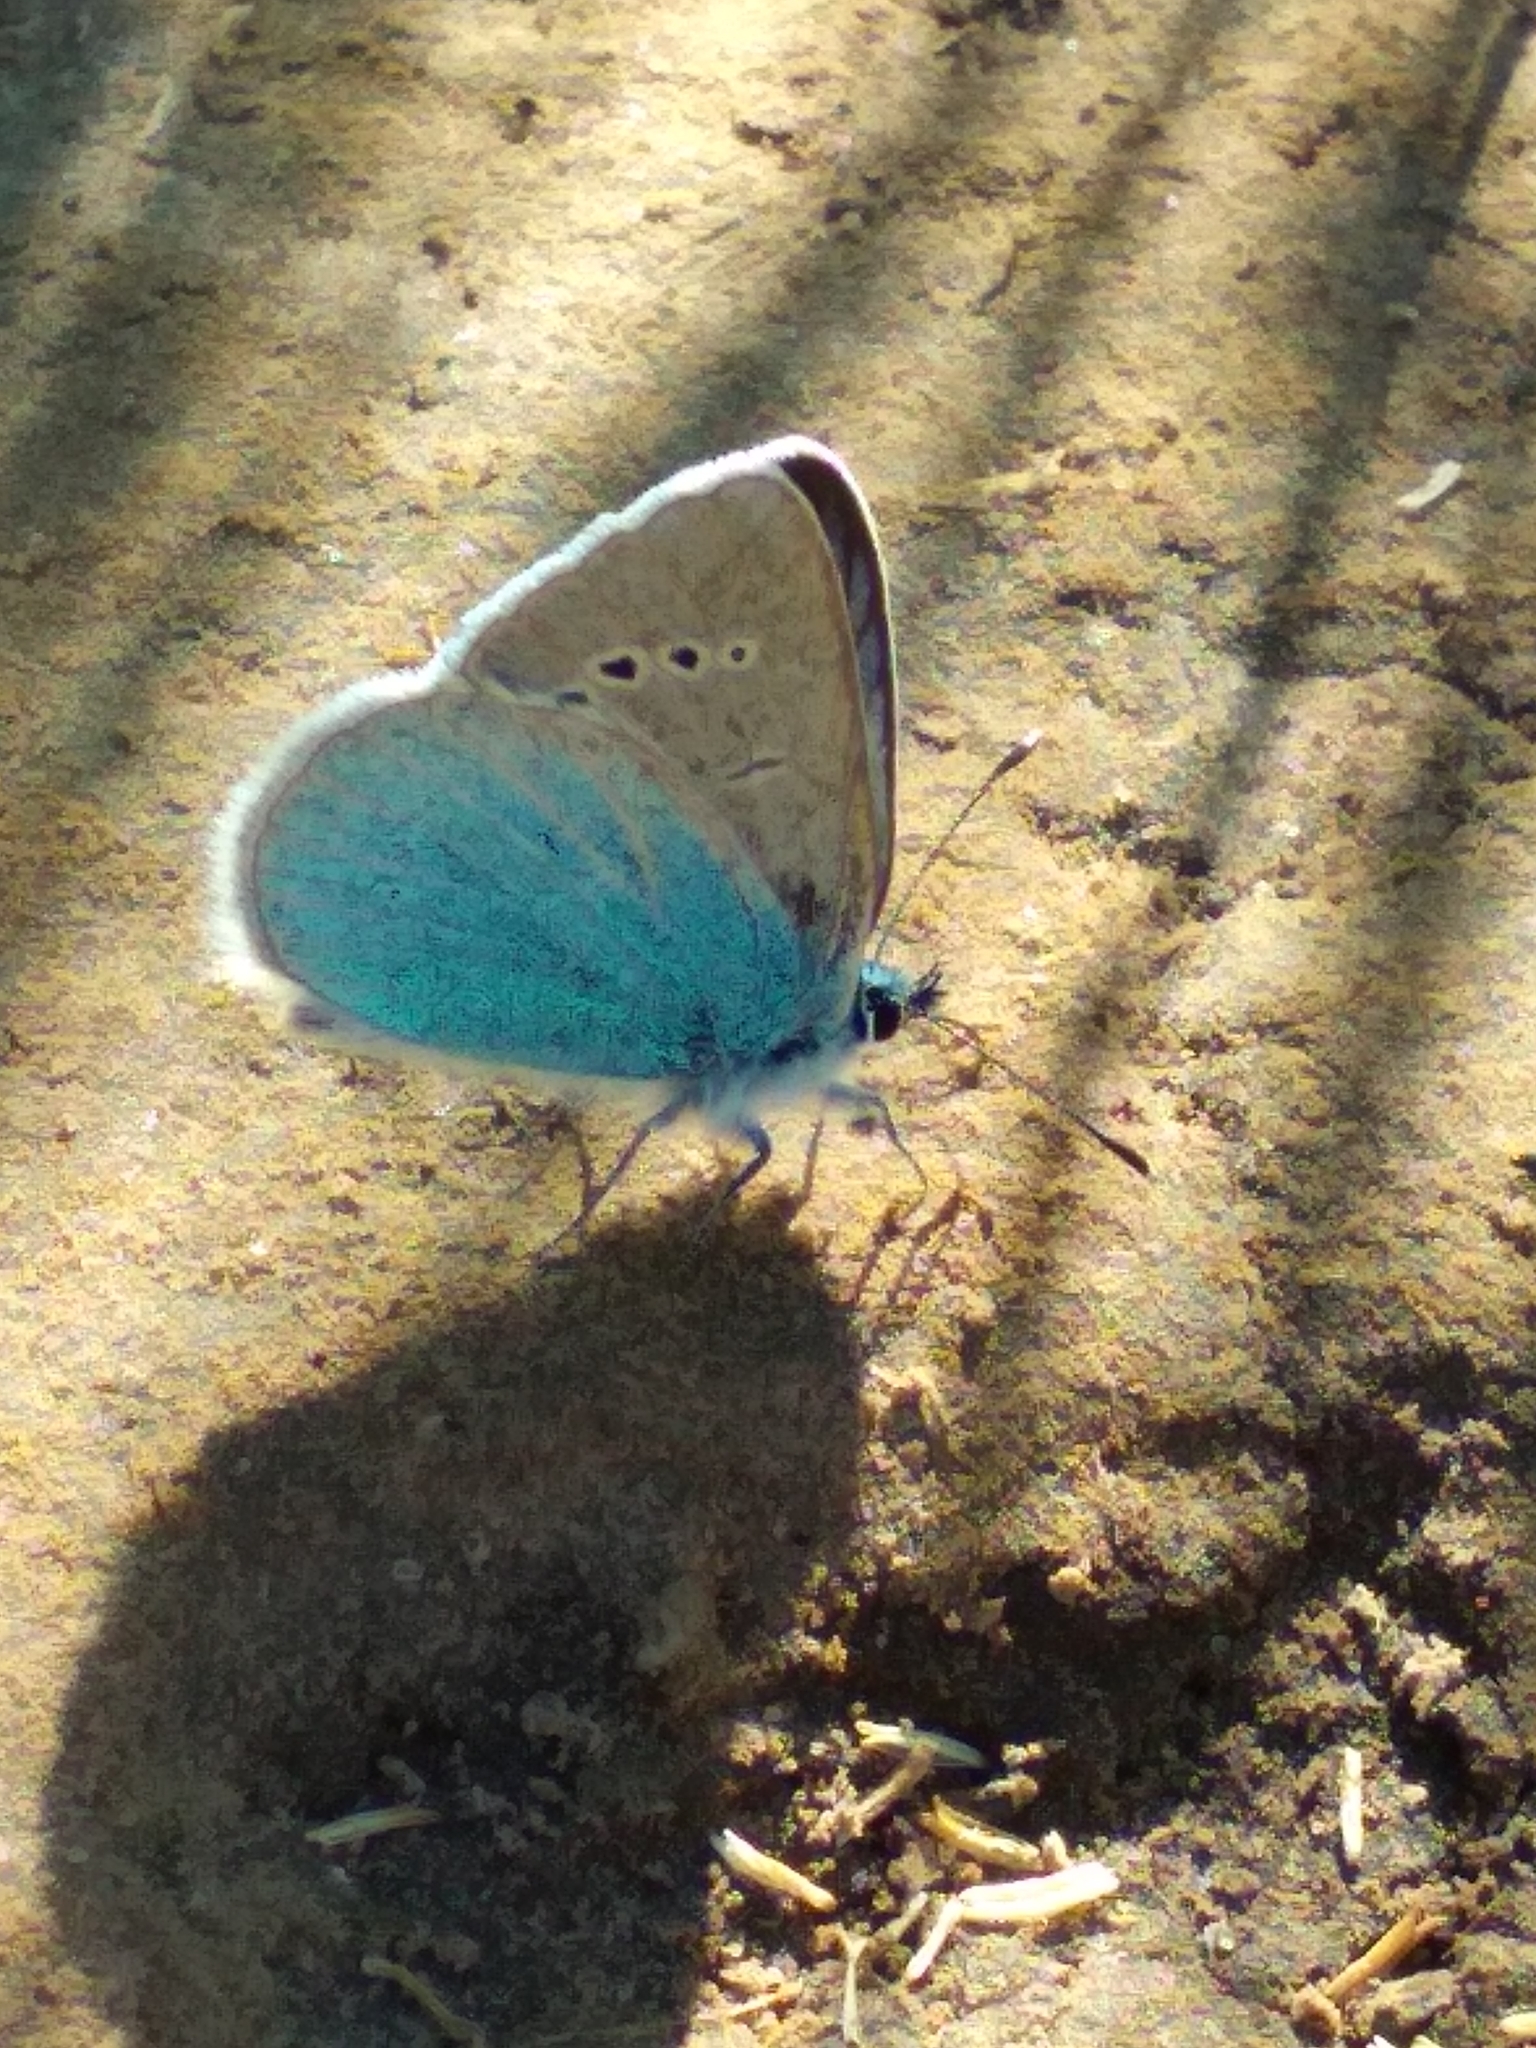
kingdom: Animalia
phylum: Arthropoda
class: Insecta
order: Lepidoptera
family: Lycaenidae
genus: Glaucopsyche
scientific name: Glaucopsyche alexis
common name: Green-underside blue
